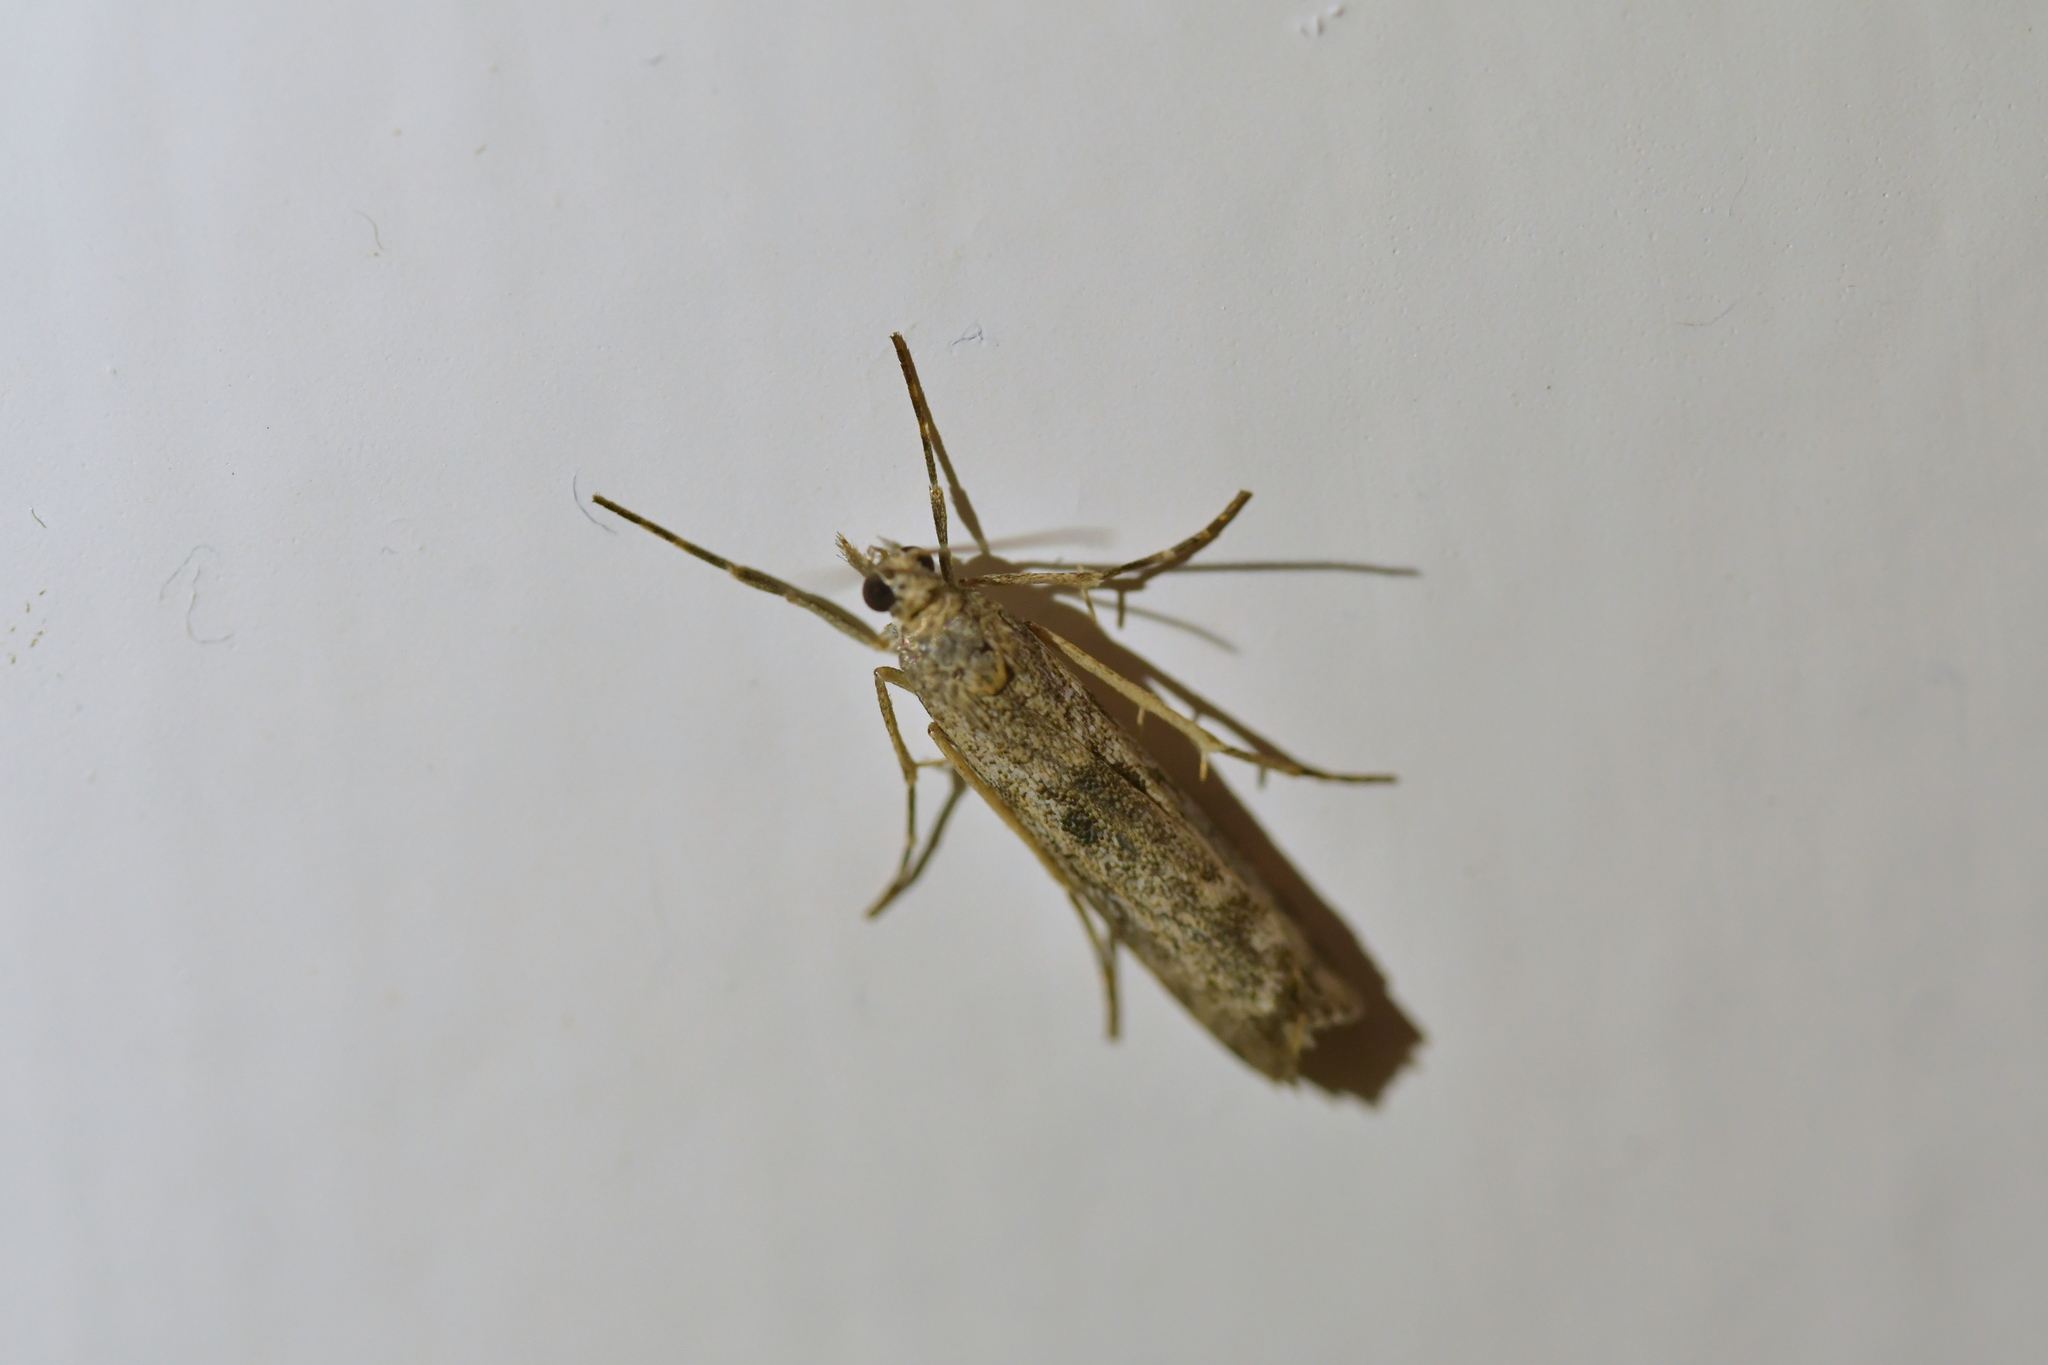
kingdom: Animalia
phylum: Arthropoda
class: Insecta
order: Lepidoptera
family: Crambidae
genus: Eudonia
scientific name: Eudonia leptalea
